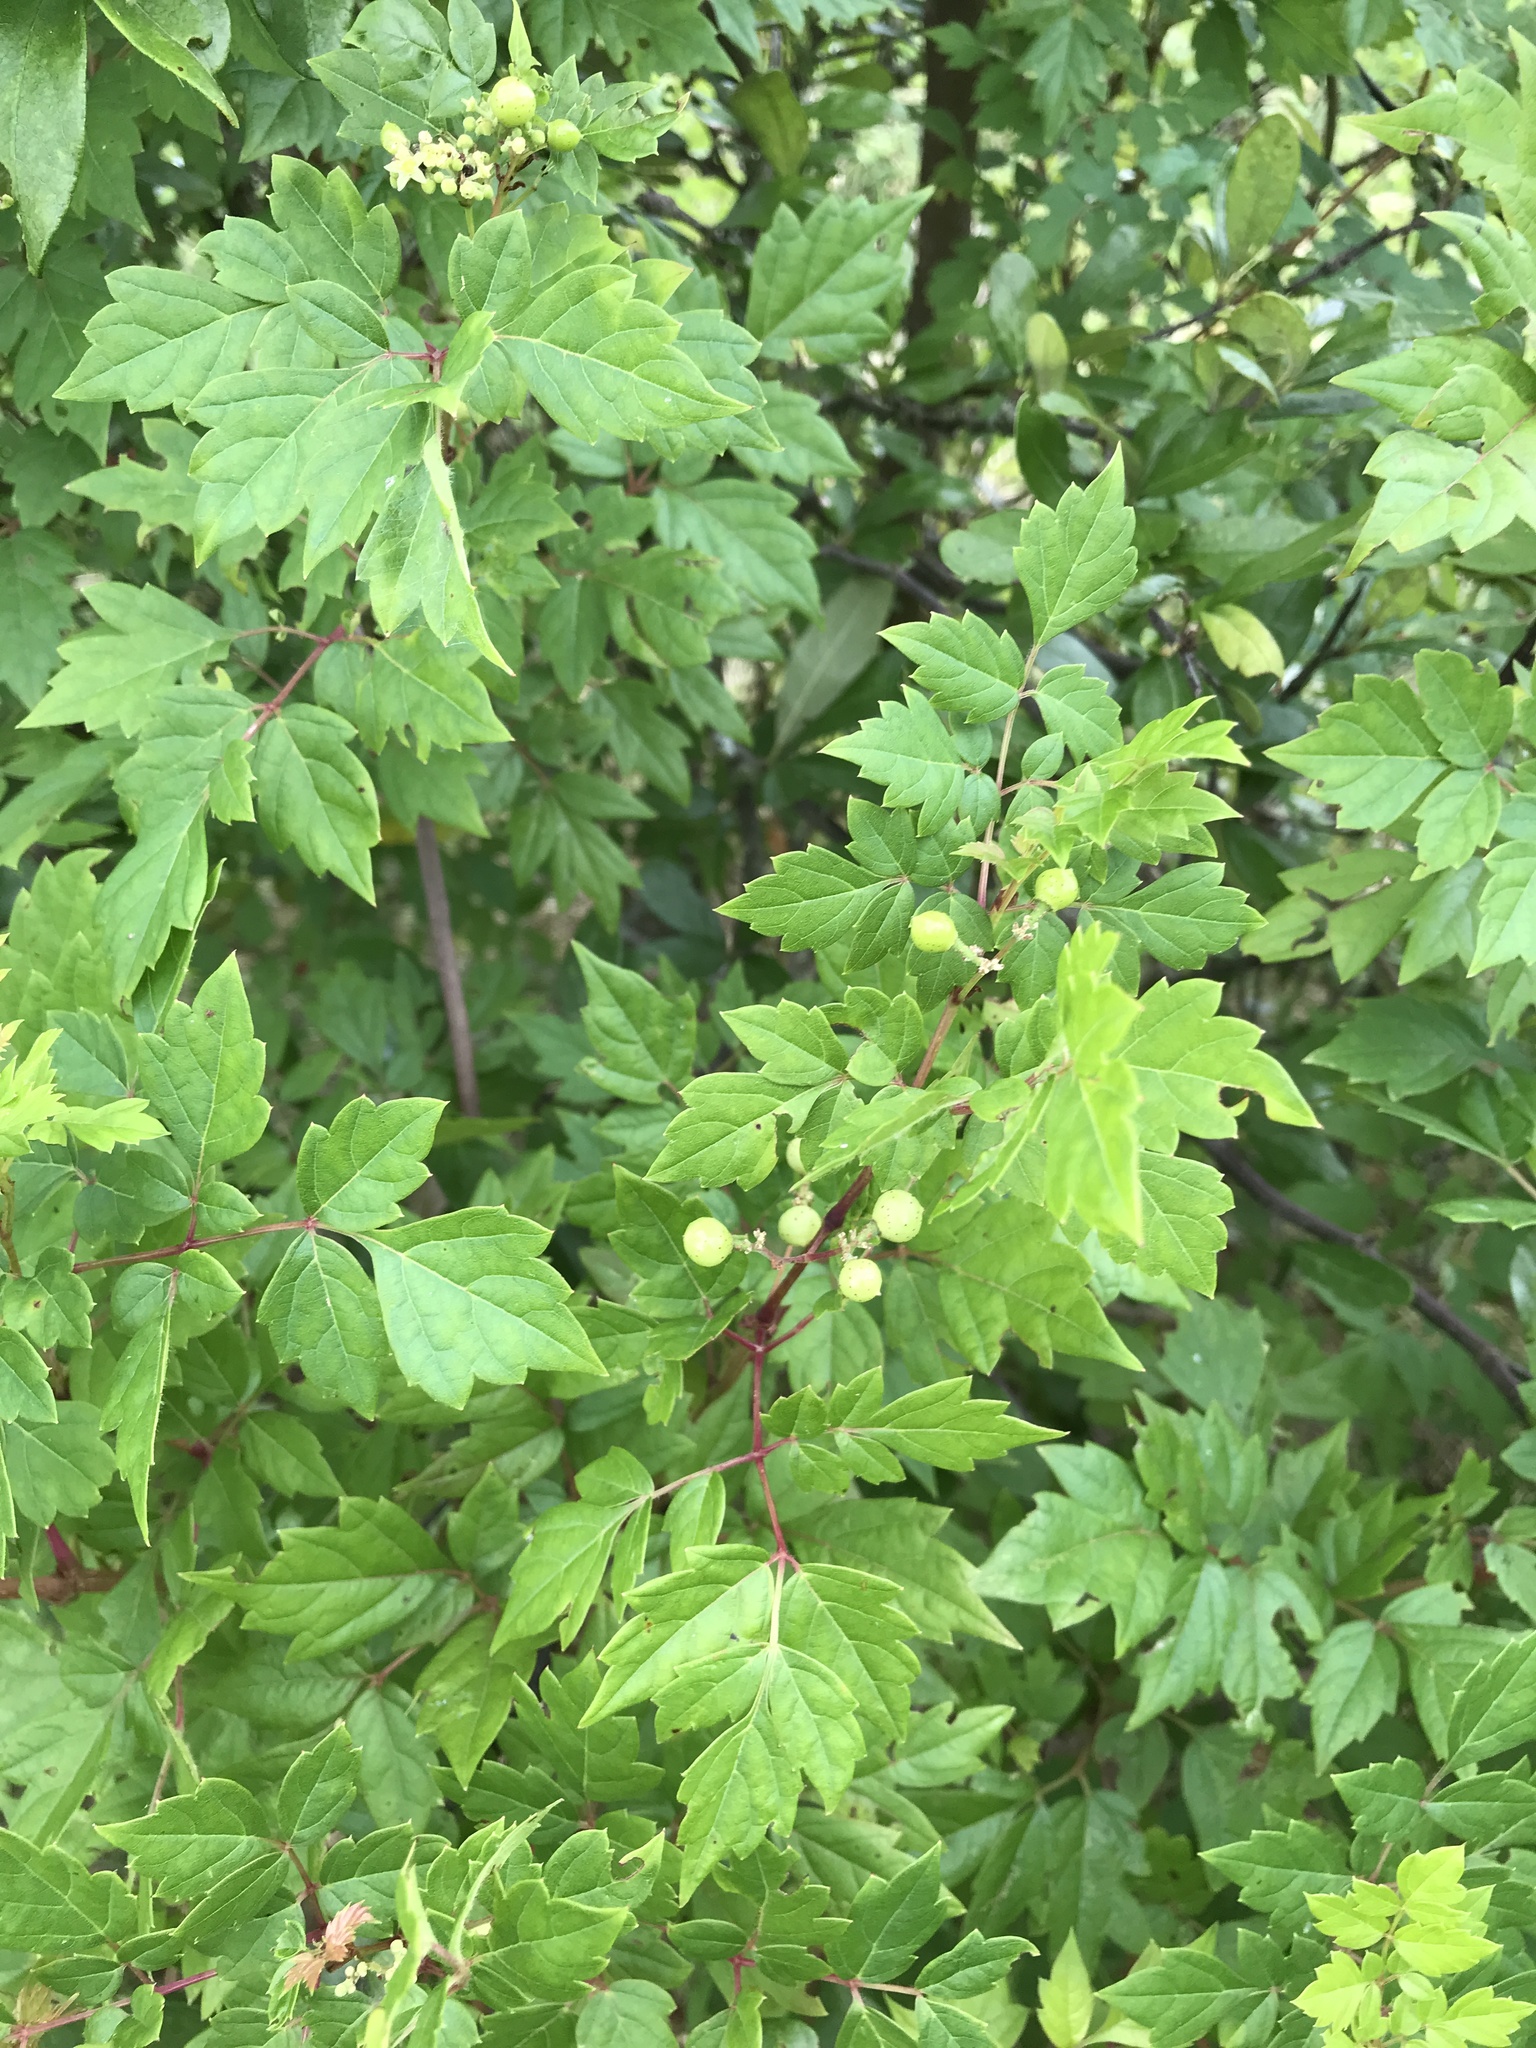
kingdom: Plantae
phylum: Tracheophyta
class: Magnoliopsida
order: Vitales
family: Vitaceae
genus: Nekemias
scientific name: Nekemias arborea
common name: Peppervine
